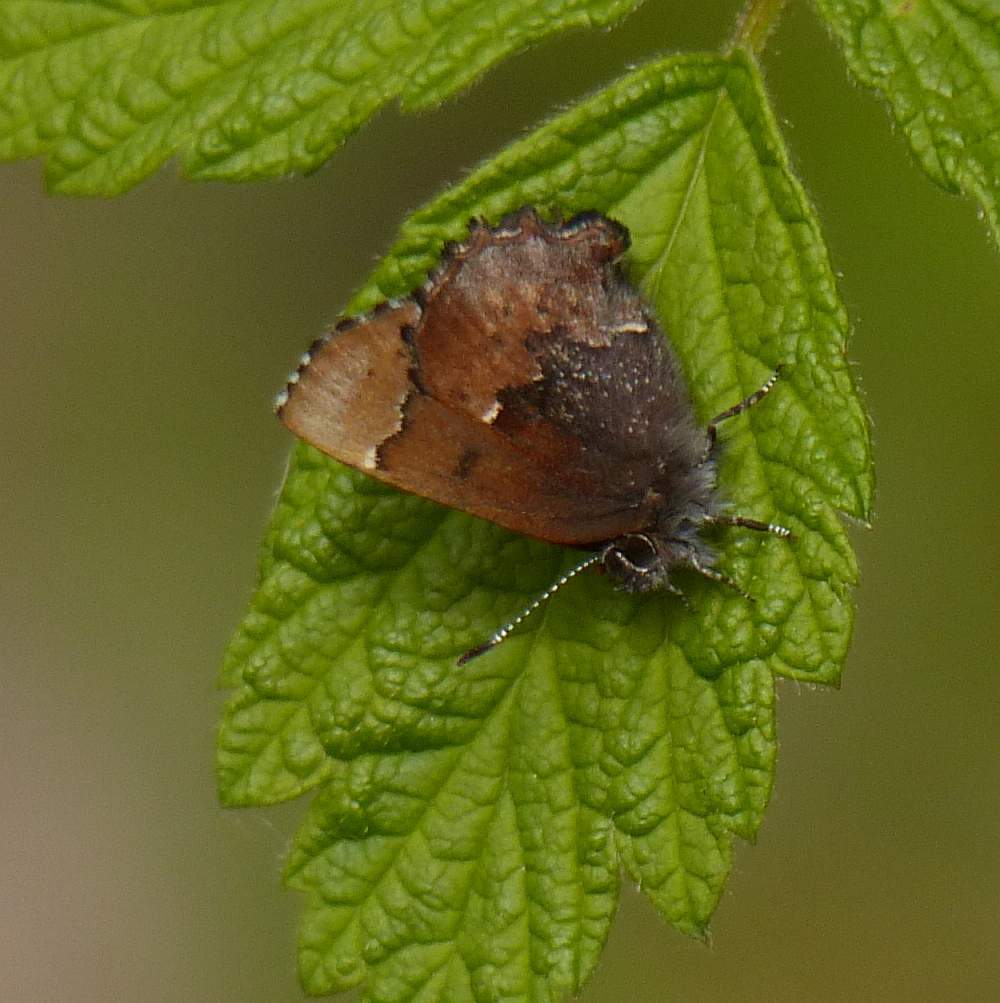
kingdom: Animalia
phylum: Arthropoda
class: Insecta
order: Lepidoptera
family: Lycaenidae
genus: Incisalia
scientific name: Incisalia henrici
